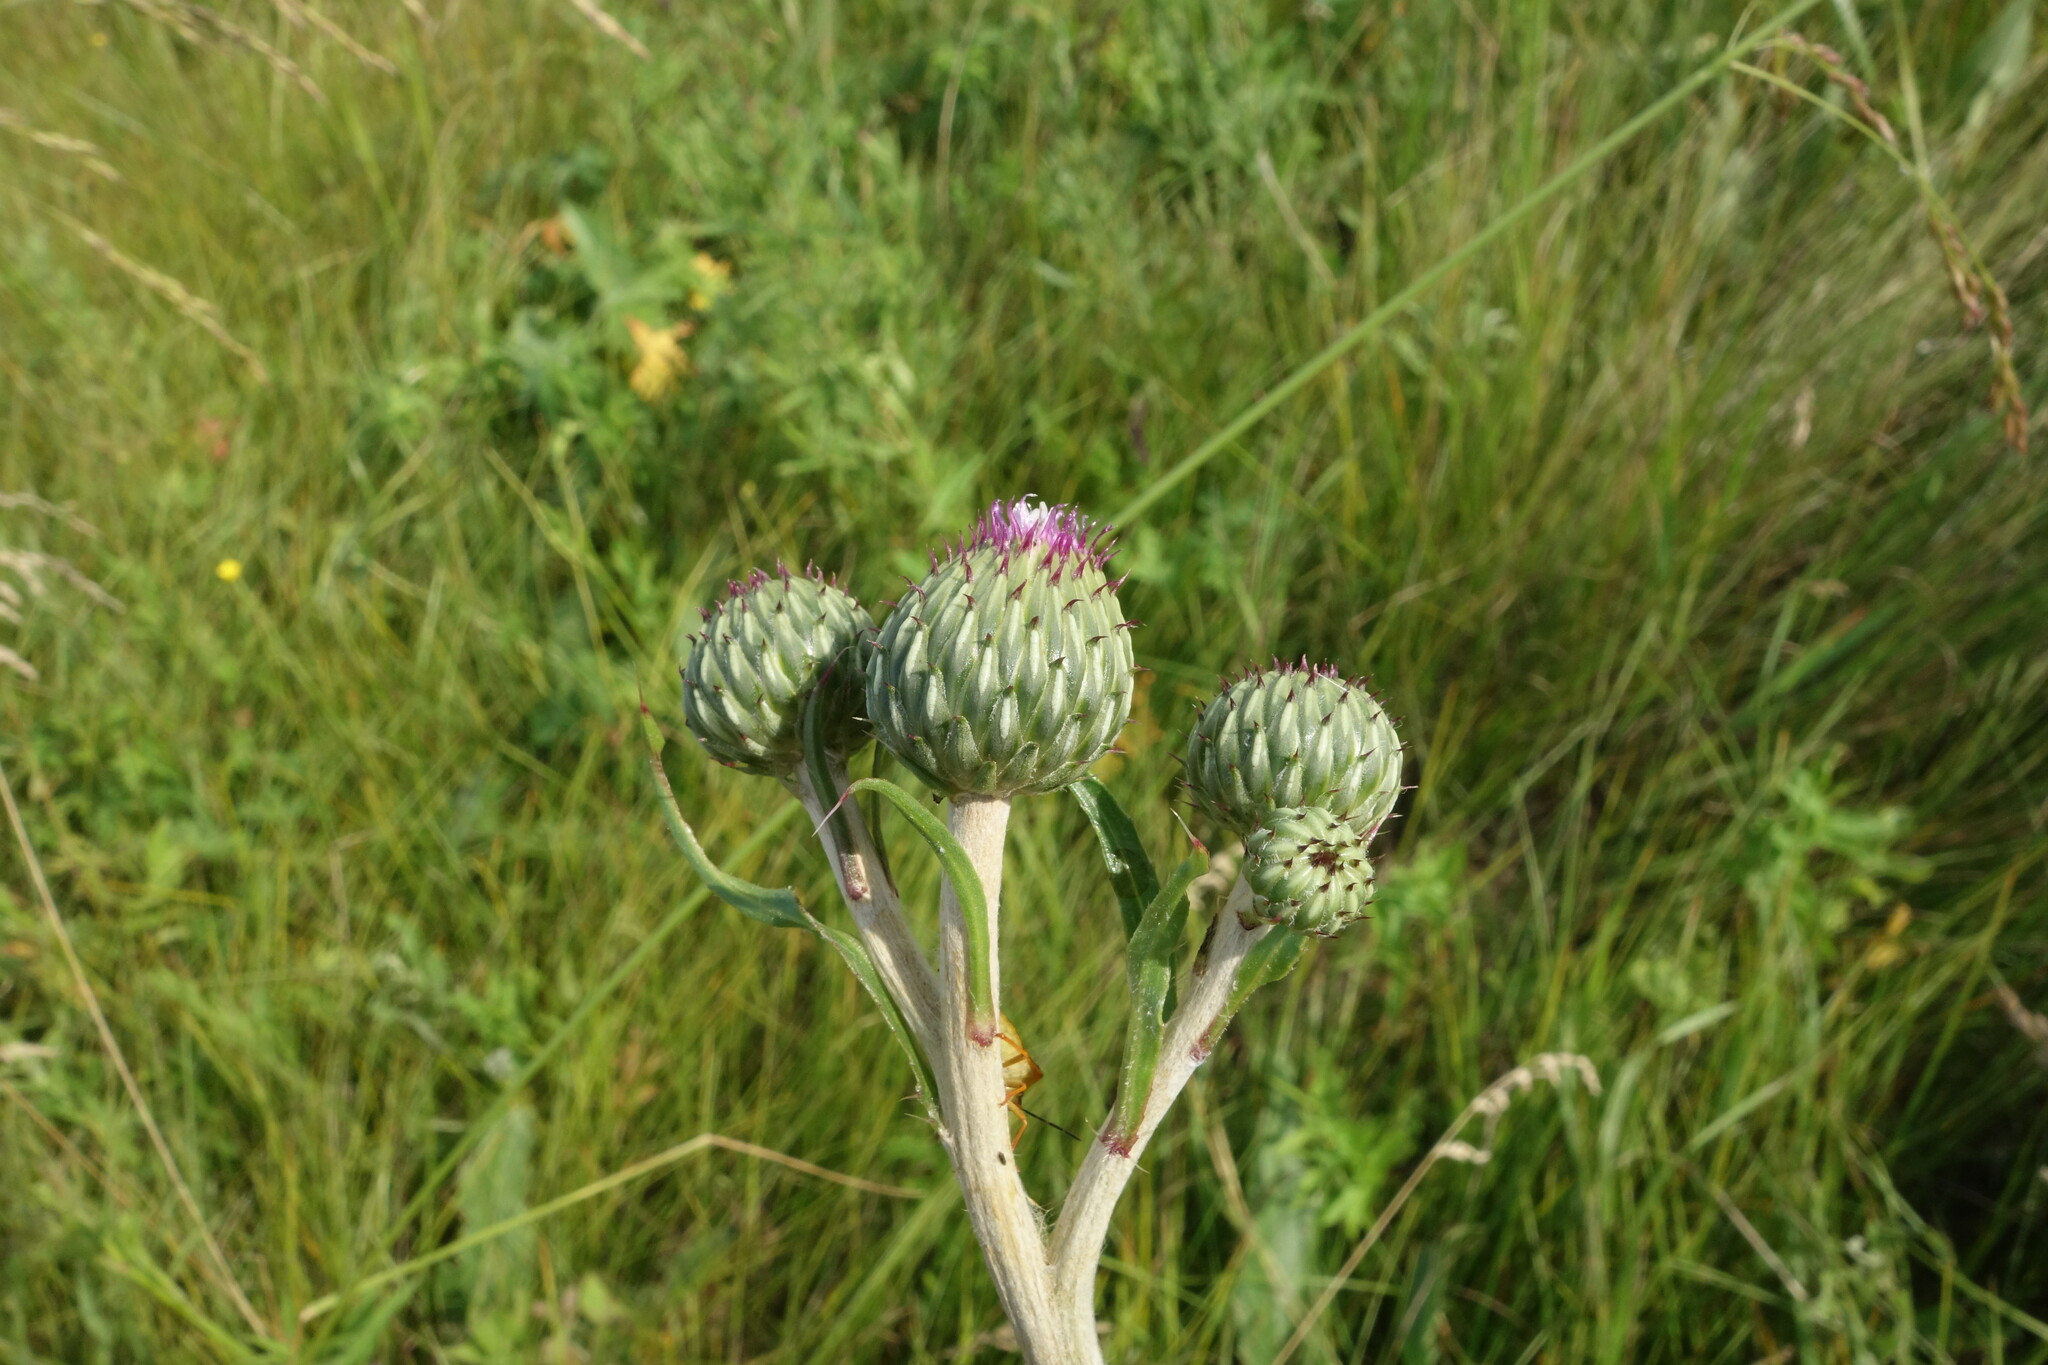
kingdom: Plantae
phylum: Tracheophyta
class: Magnoliopsida
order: Asterales
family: Asteraceae
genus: Cirsium
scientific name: Cirsium canum
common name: Queen anne's thistle
